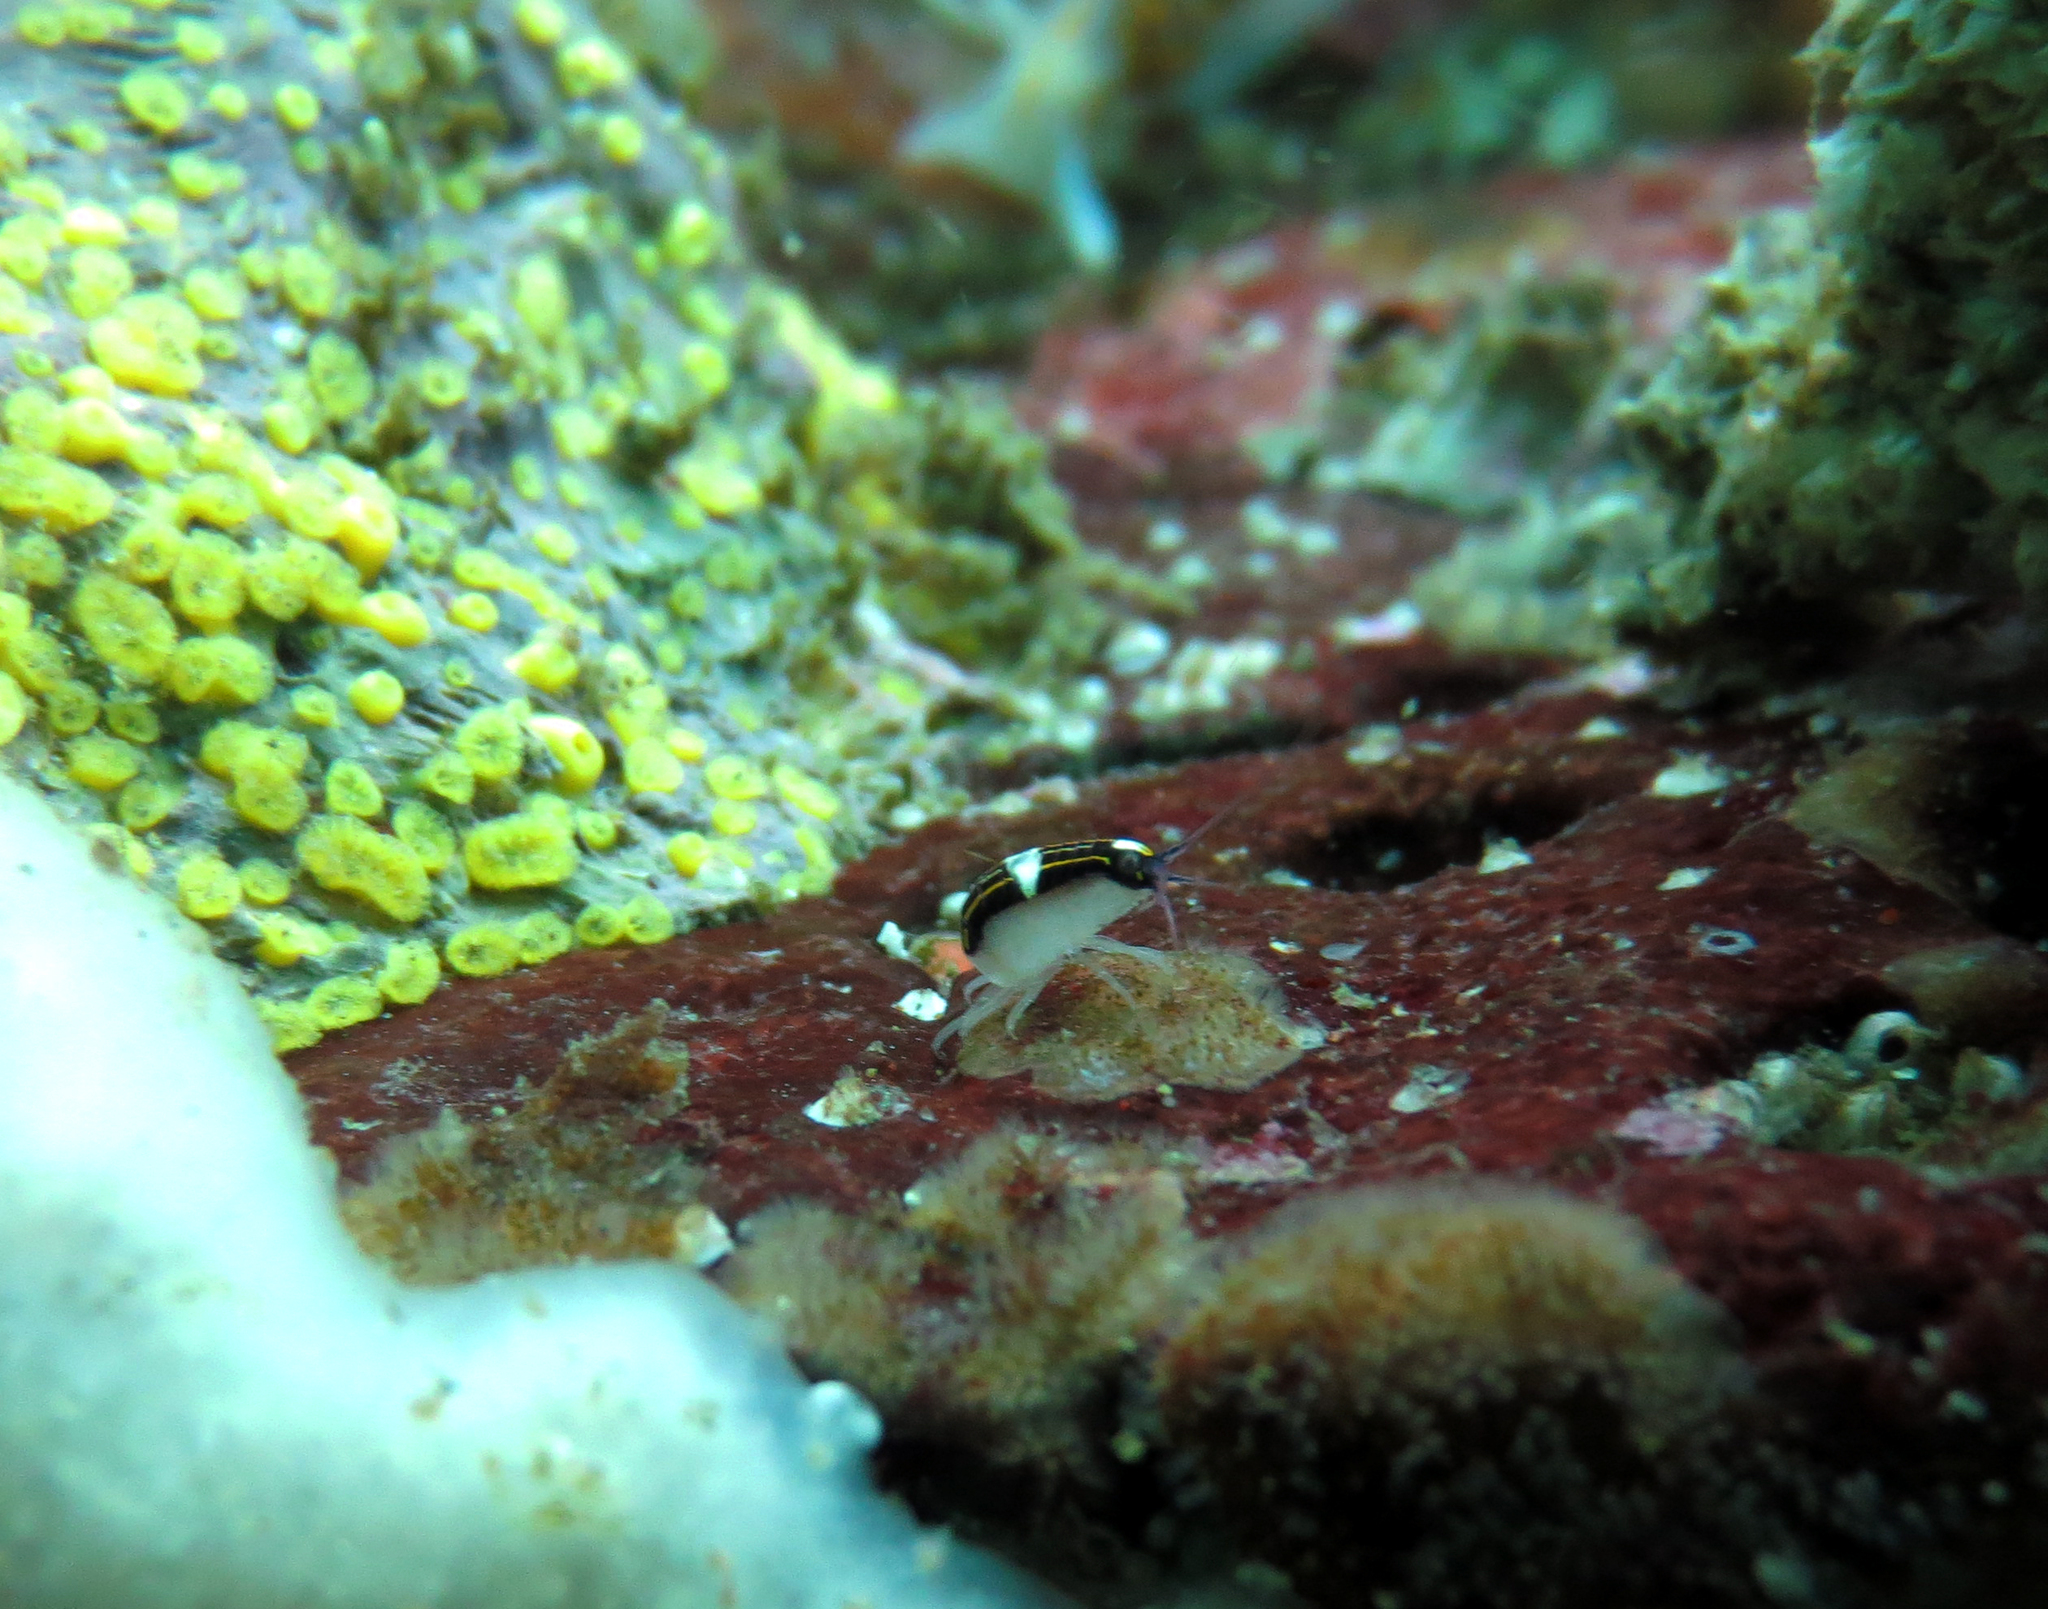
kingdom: Animalia
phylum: Arthropoda
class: Malacostraca
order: Amphipoda
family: Pleustidae
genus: Chromopleustes
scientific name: Chromopleustes oculatus
